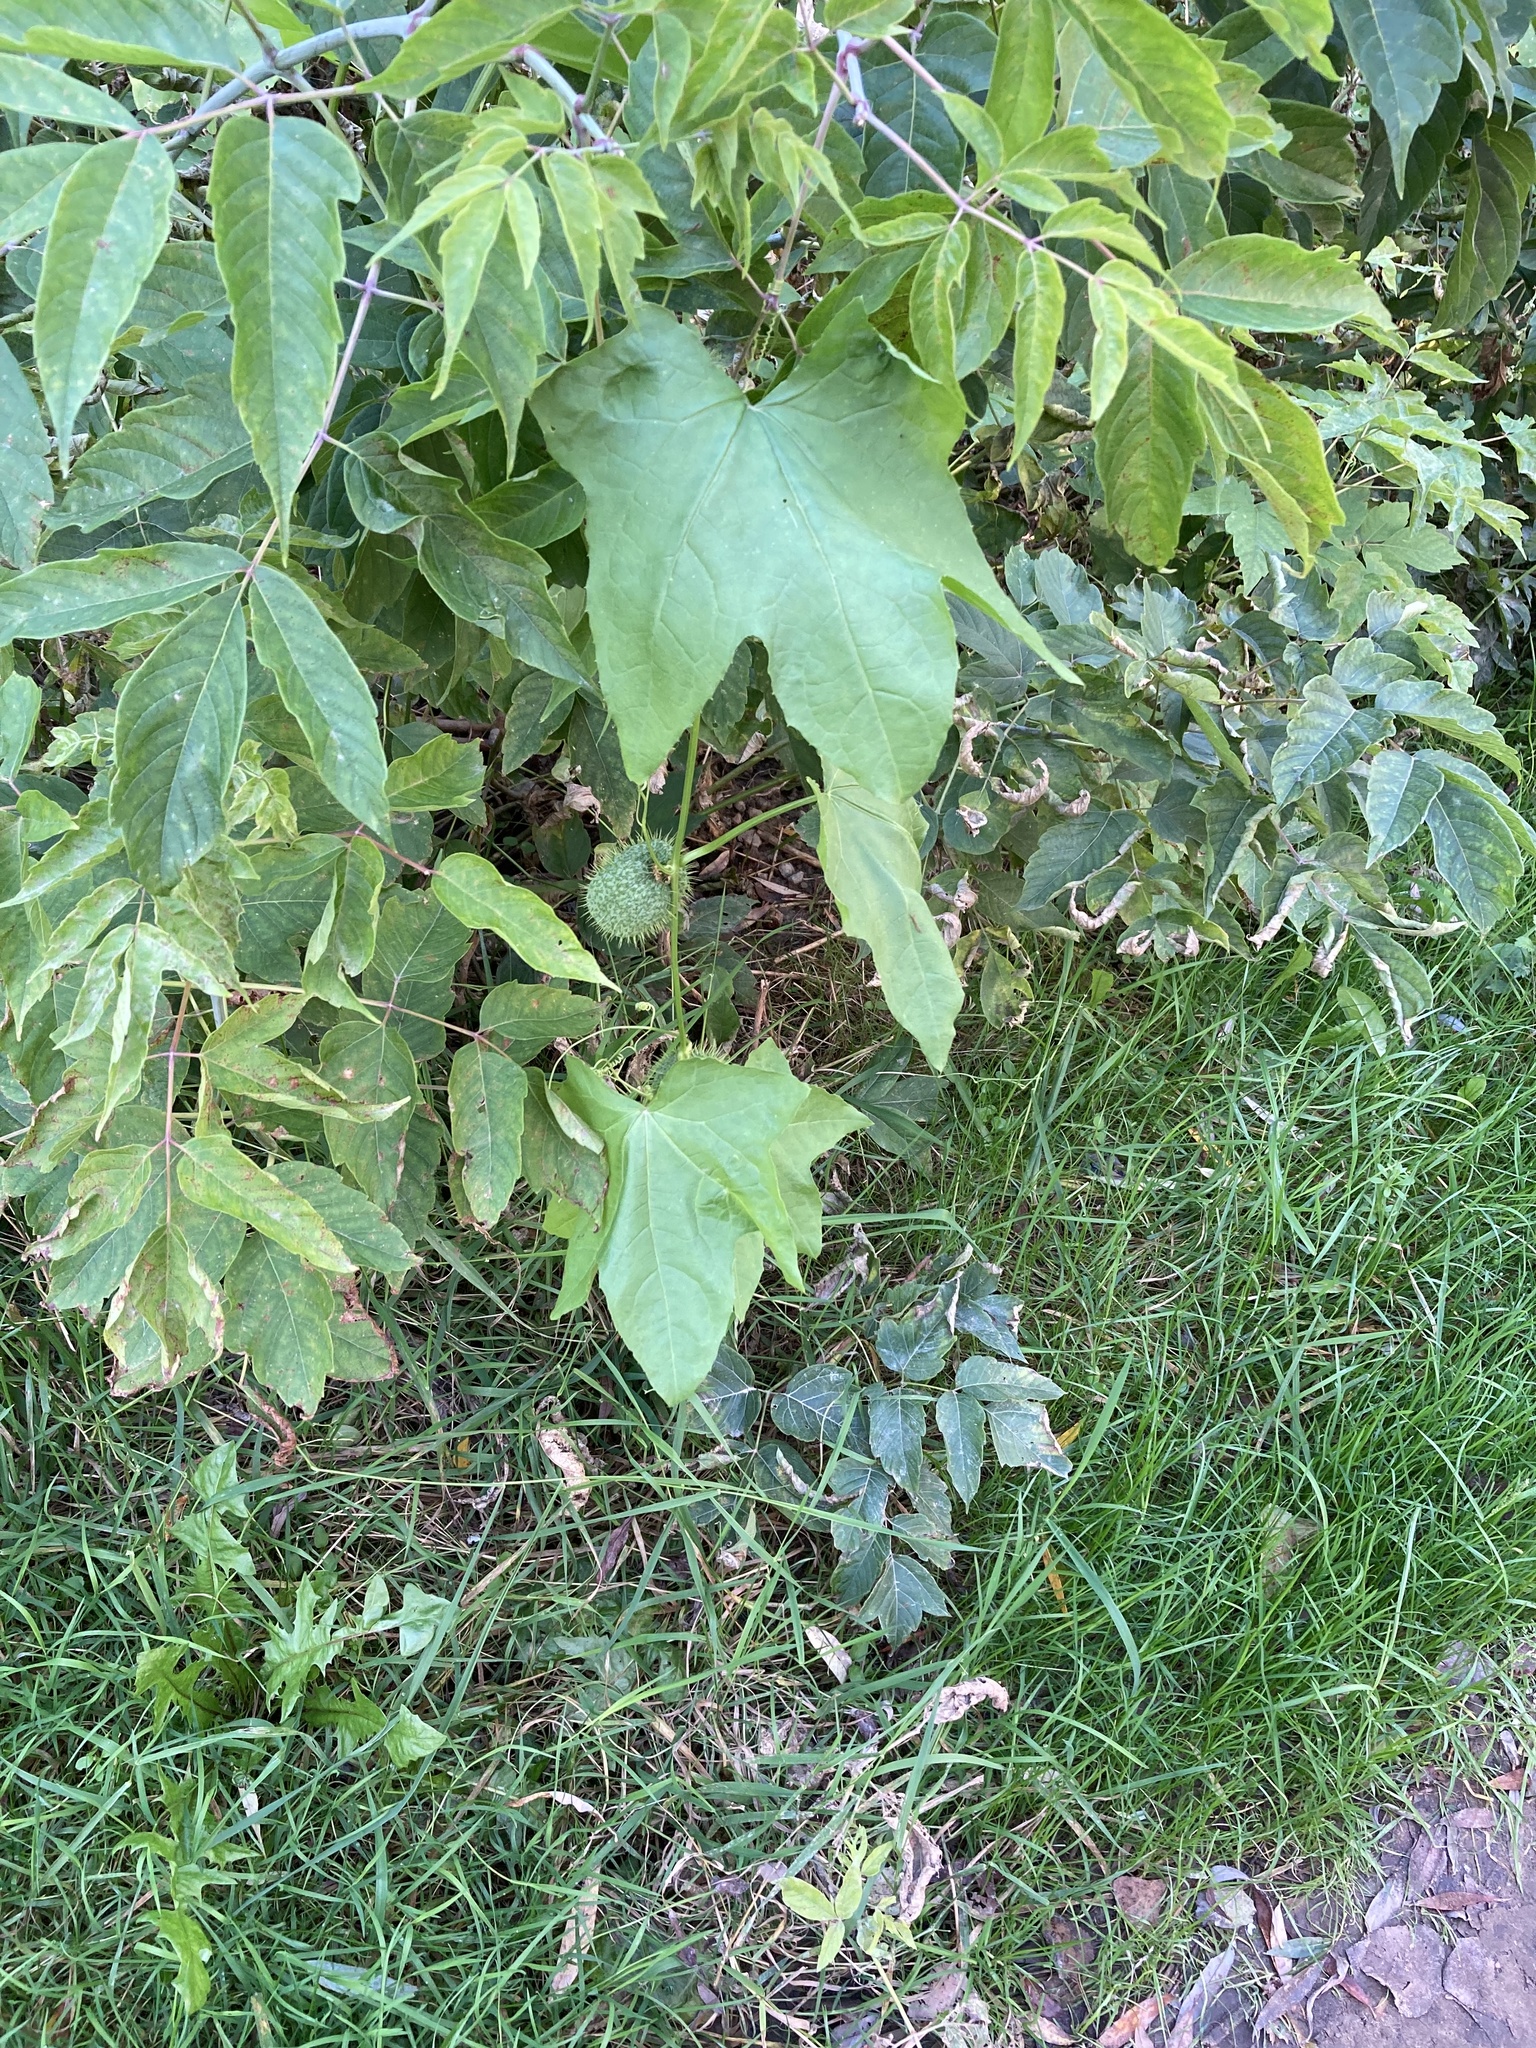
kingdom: Plantae
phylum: Tracheophyta
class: Magnoliopsida
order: Cucurbitales
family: Cucurbitaceae
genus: Echinocystis
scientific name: Echinocystis lobata
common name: Wild cucumber
